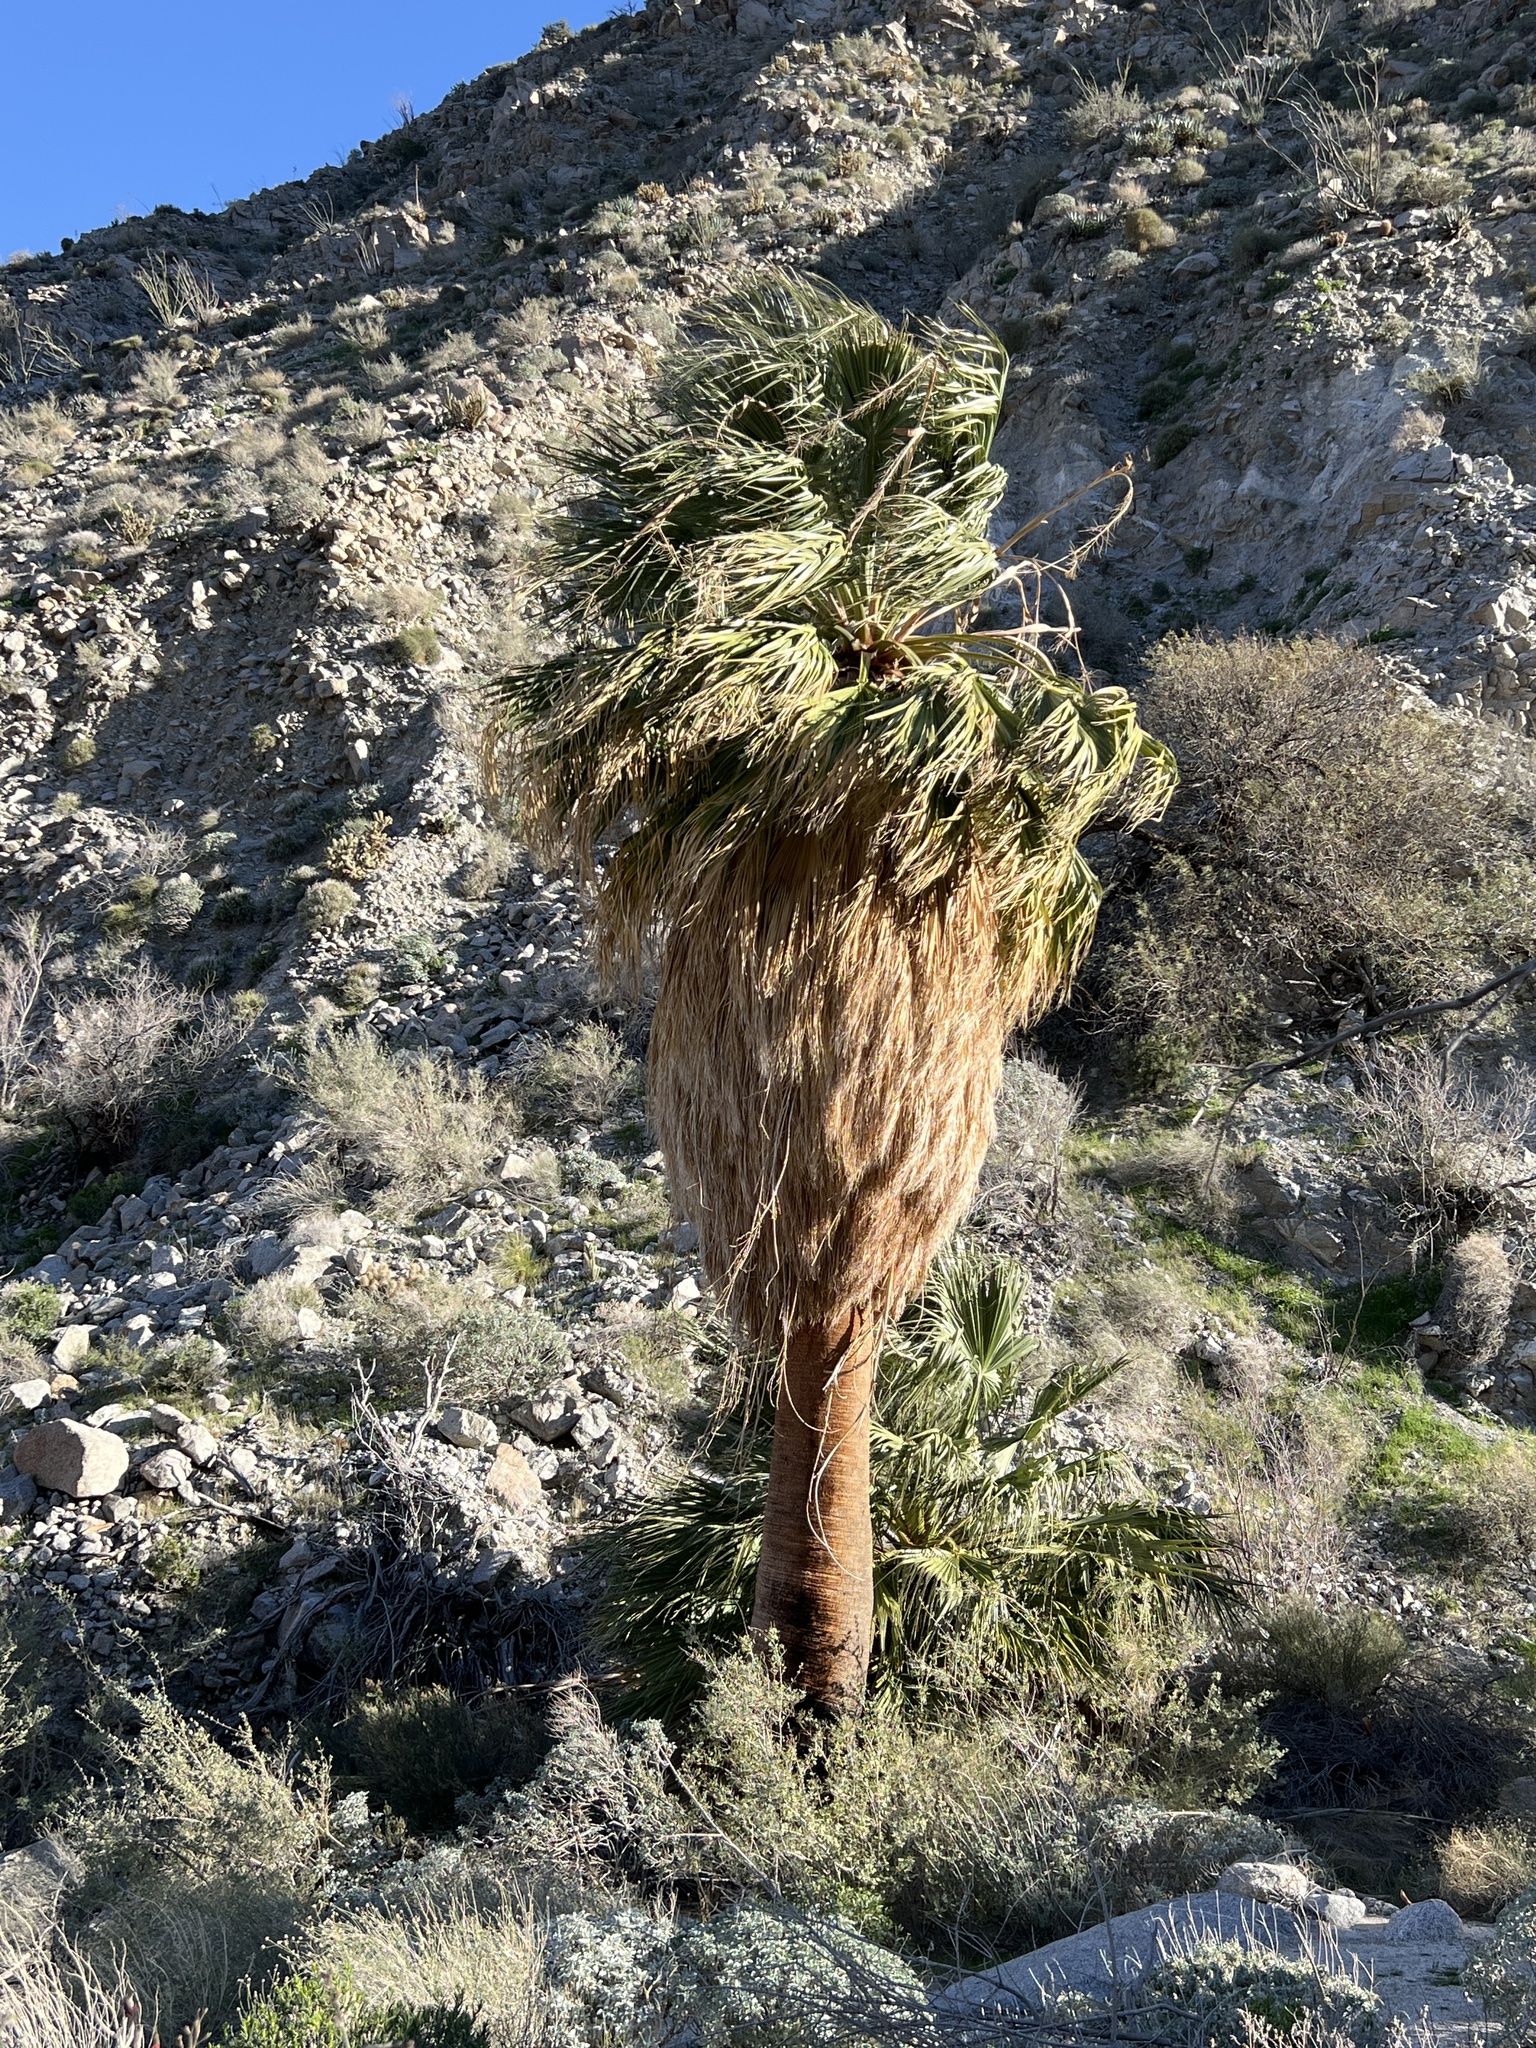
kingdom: Plantae
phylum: Tracheophyta
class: Liliopsida
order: Arecales
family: Arecaceae
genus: Washingtonia
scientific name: Washingtonia filifera
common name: California fan palm
